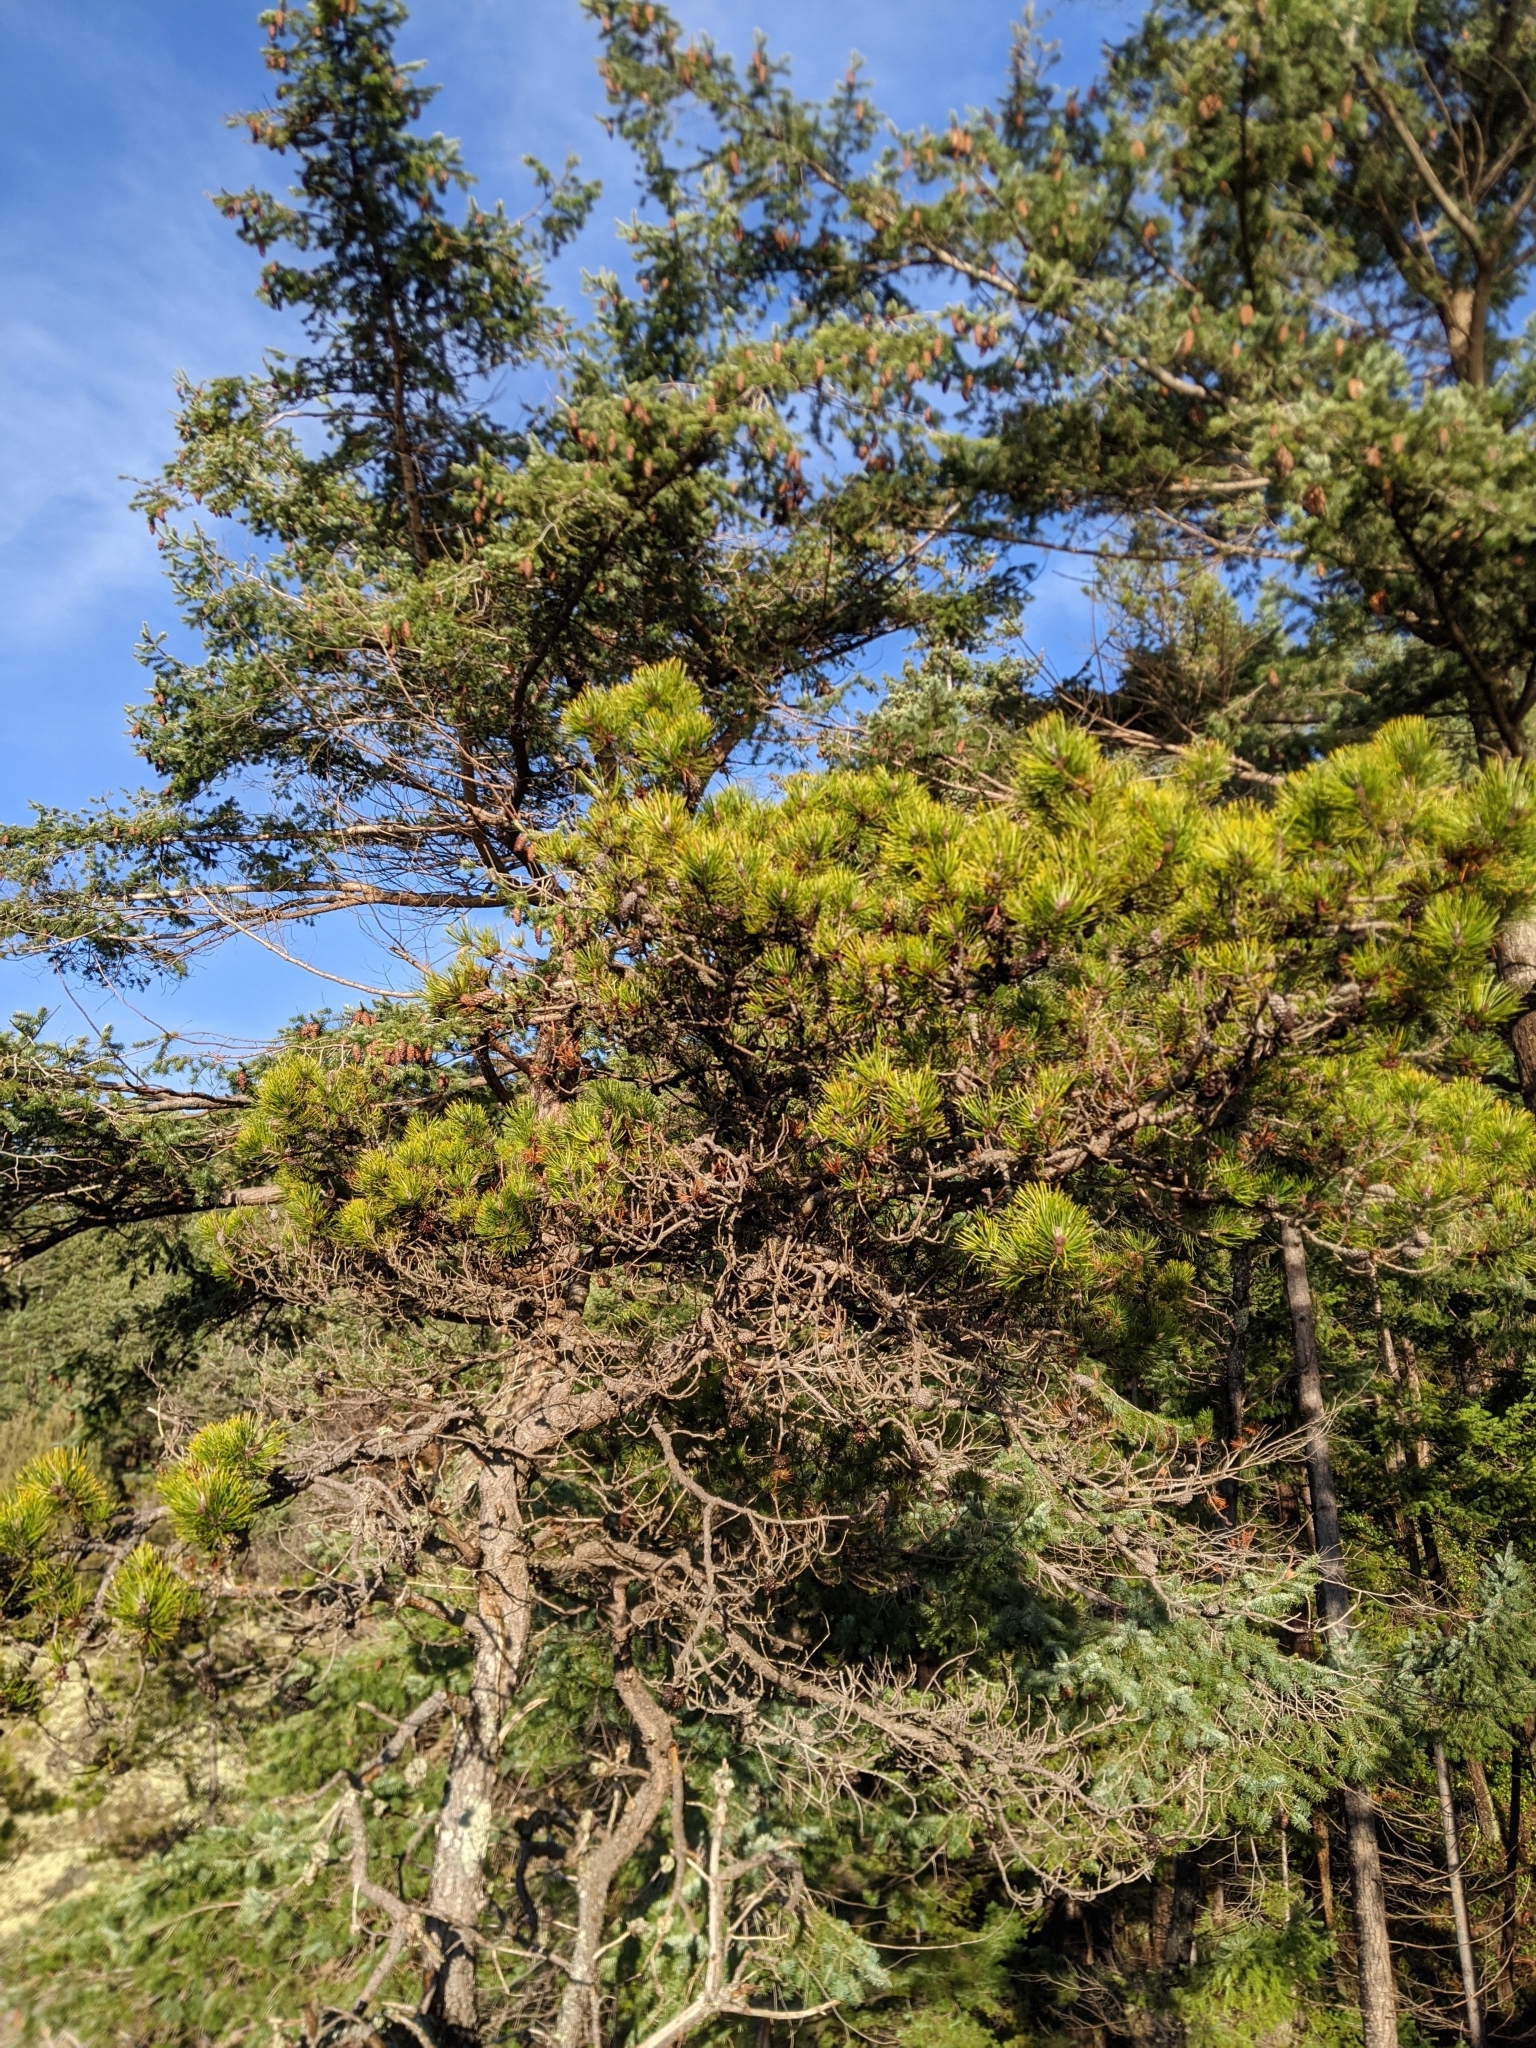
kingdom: Plantae
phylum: Tracheophyta
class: Pinopsida
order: Pinales
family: Pinaceae
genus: Pinus
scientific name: Pinus contorta
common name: Lodgepole pine
